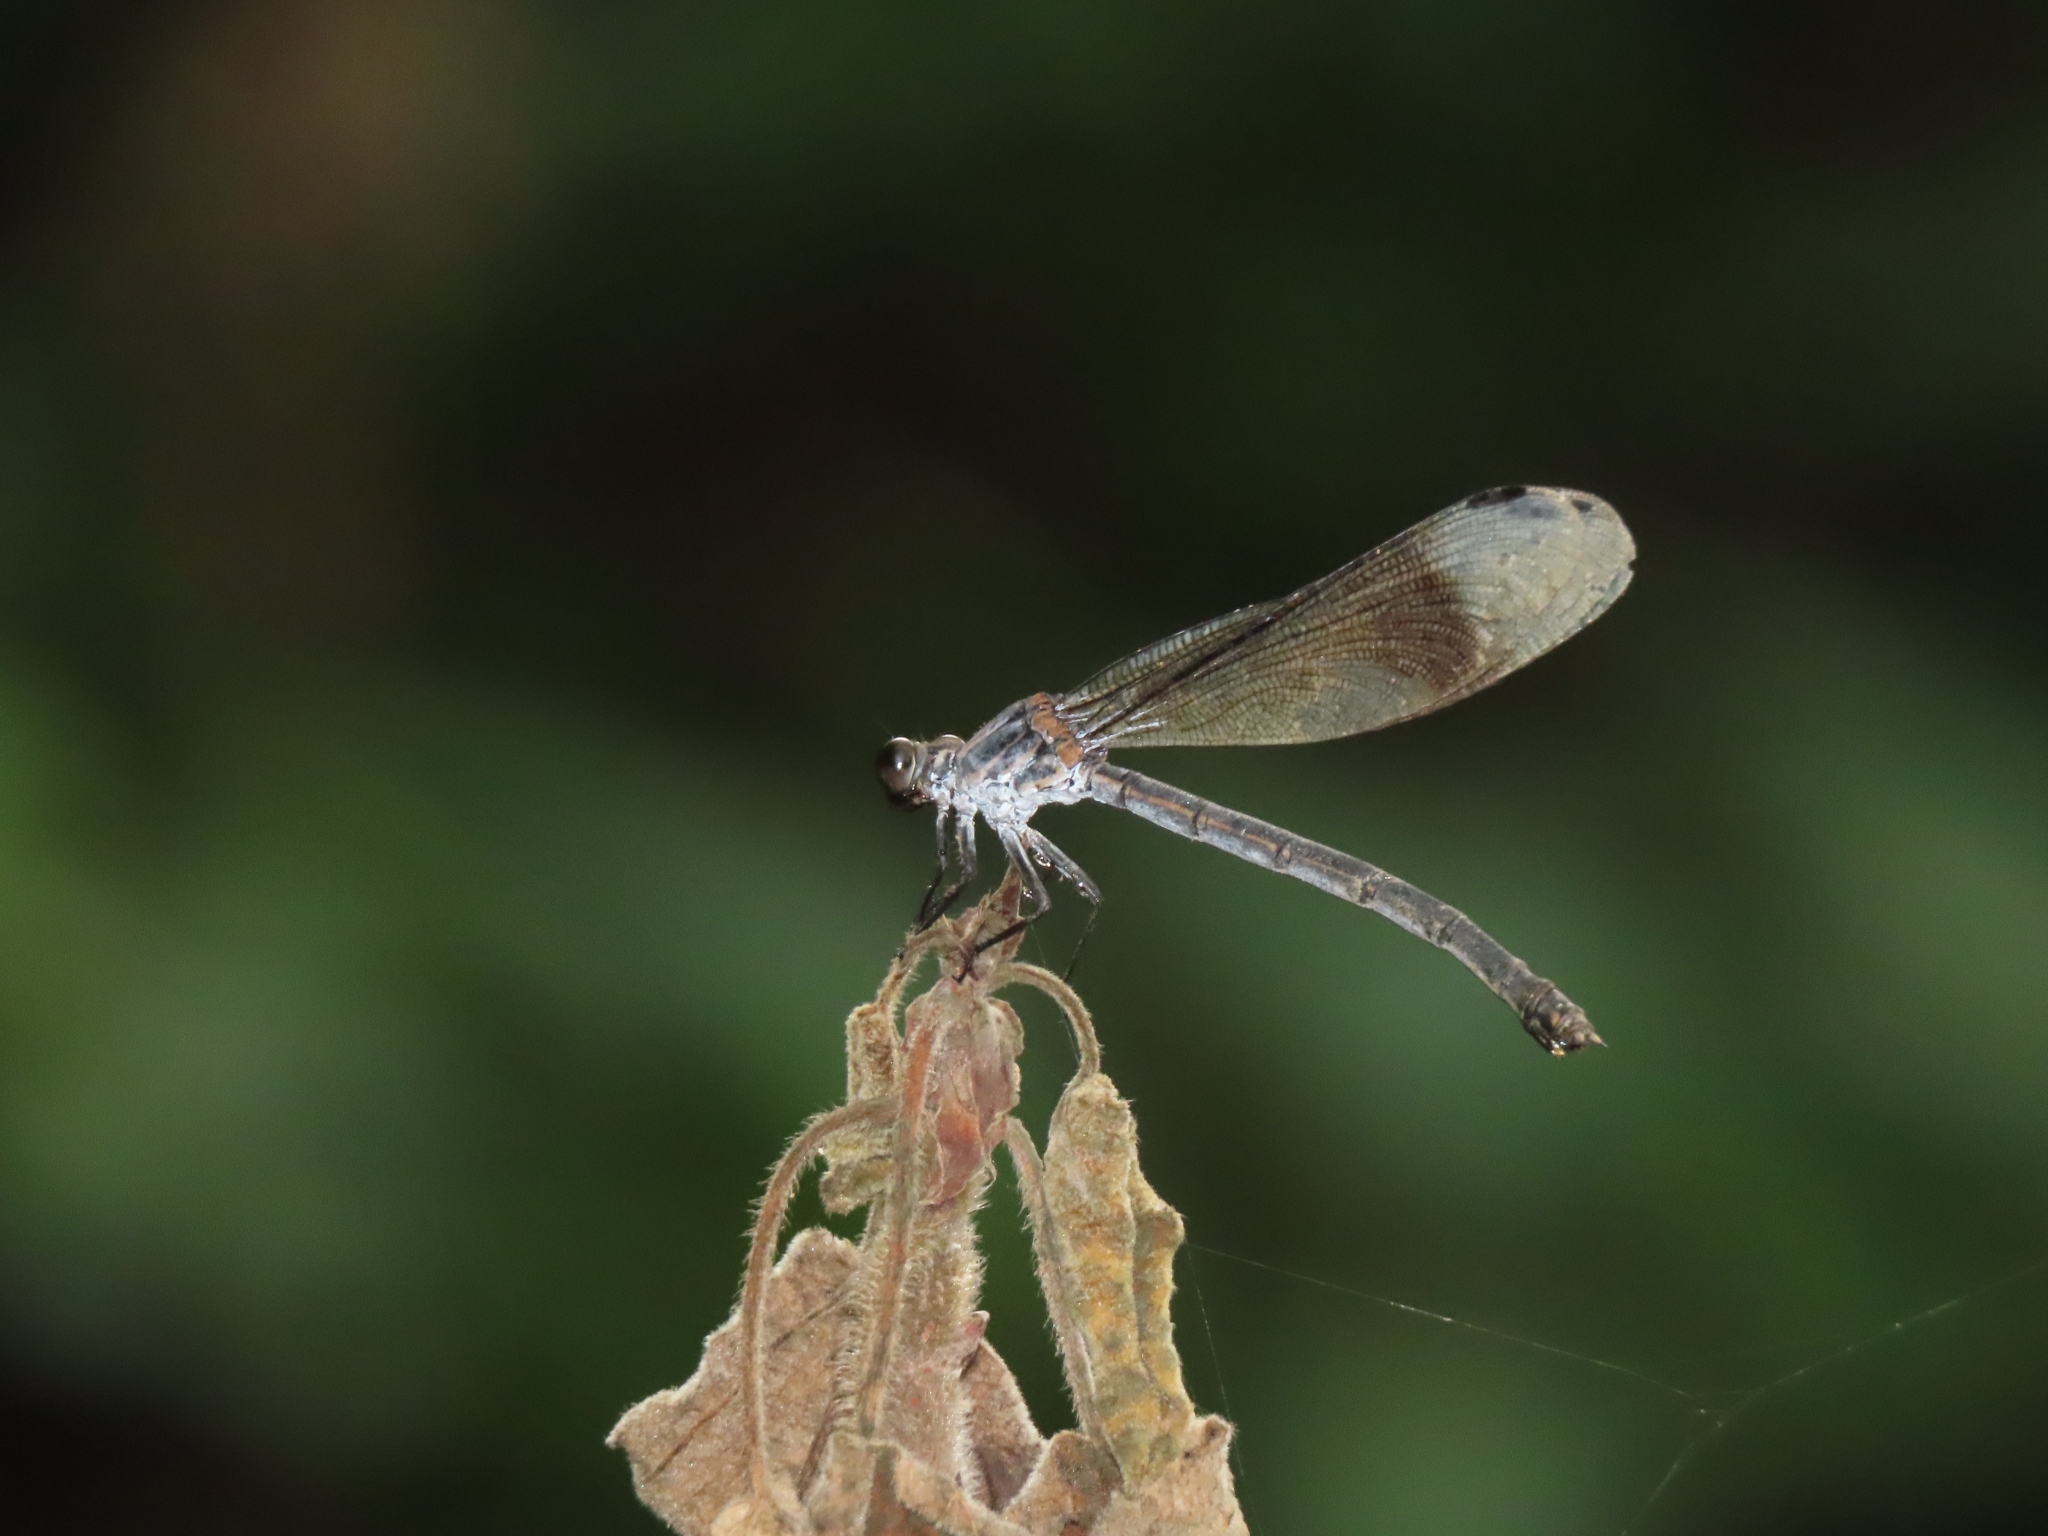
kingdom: Animalia
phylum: Arthropoda
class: Insecta
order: Odonata
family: Euphaeidae
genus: Euphaea
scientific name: Euphaea formosa
